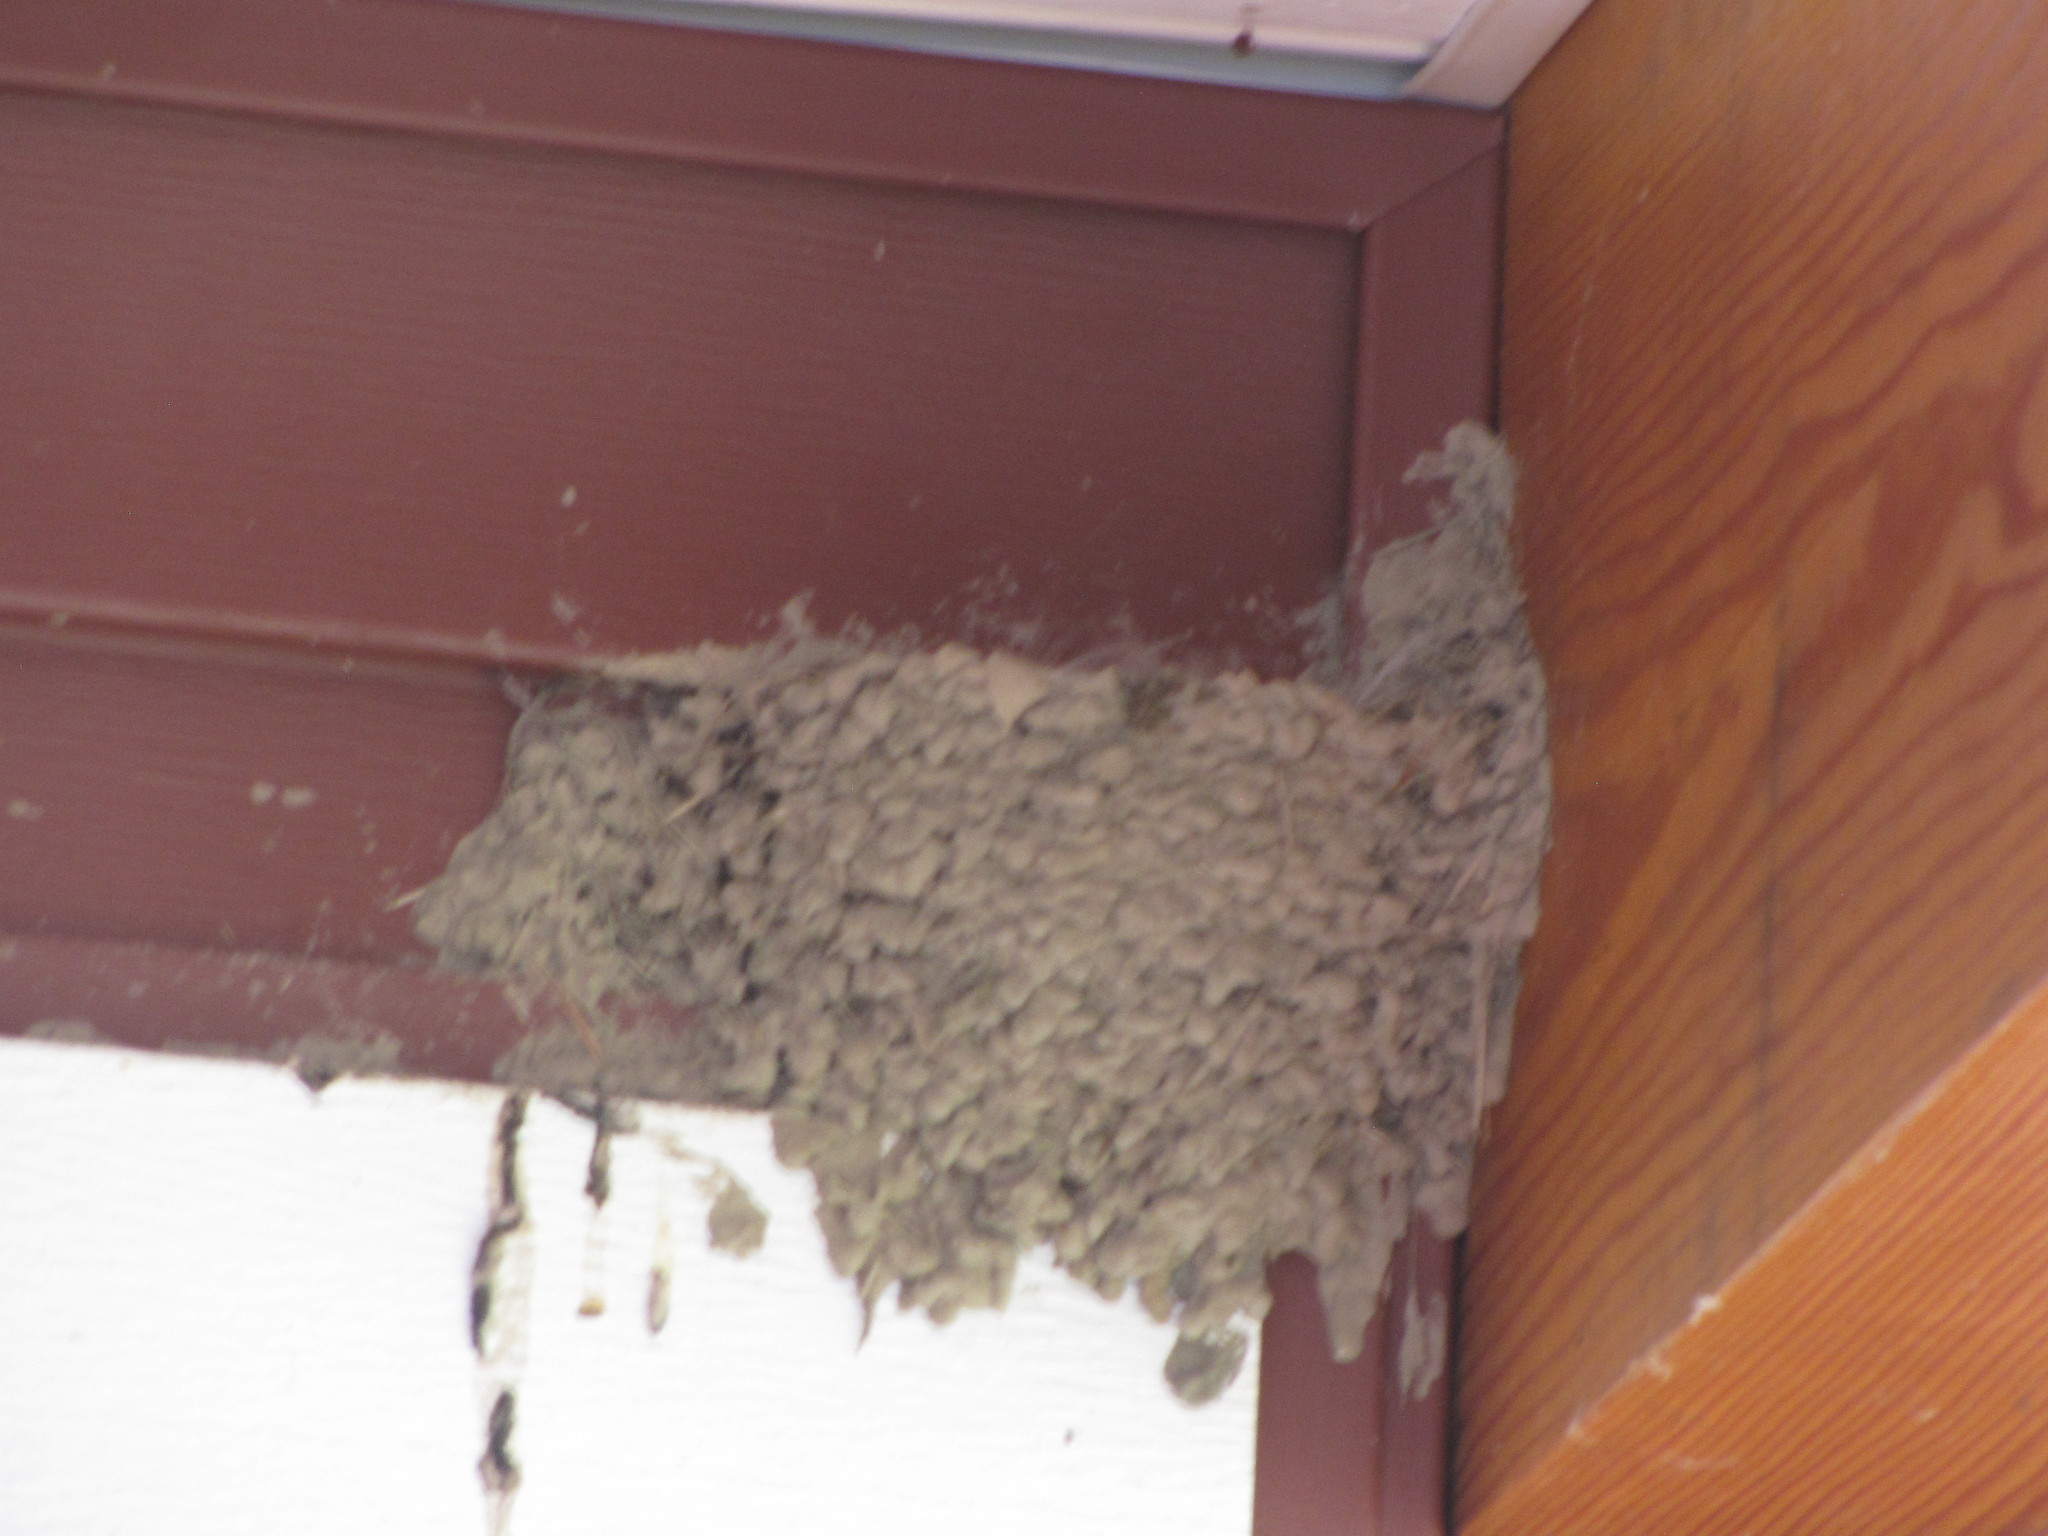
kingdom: Animalia
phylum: Chordata
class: Aves
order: Passeriformes
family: Hirundinidae
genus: Hirundo
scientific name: Hirundo rustica
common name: Barn swallow
